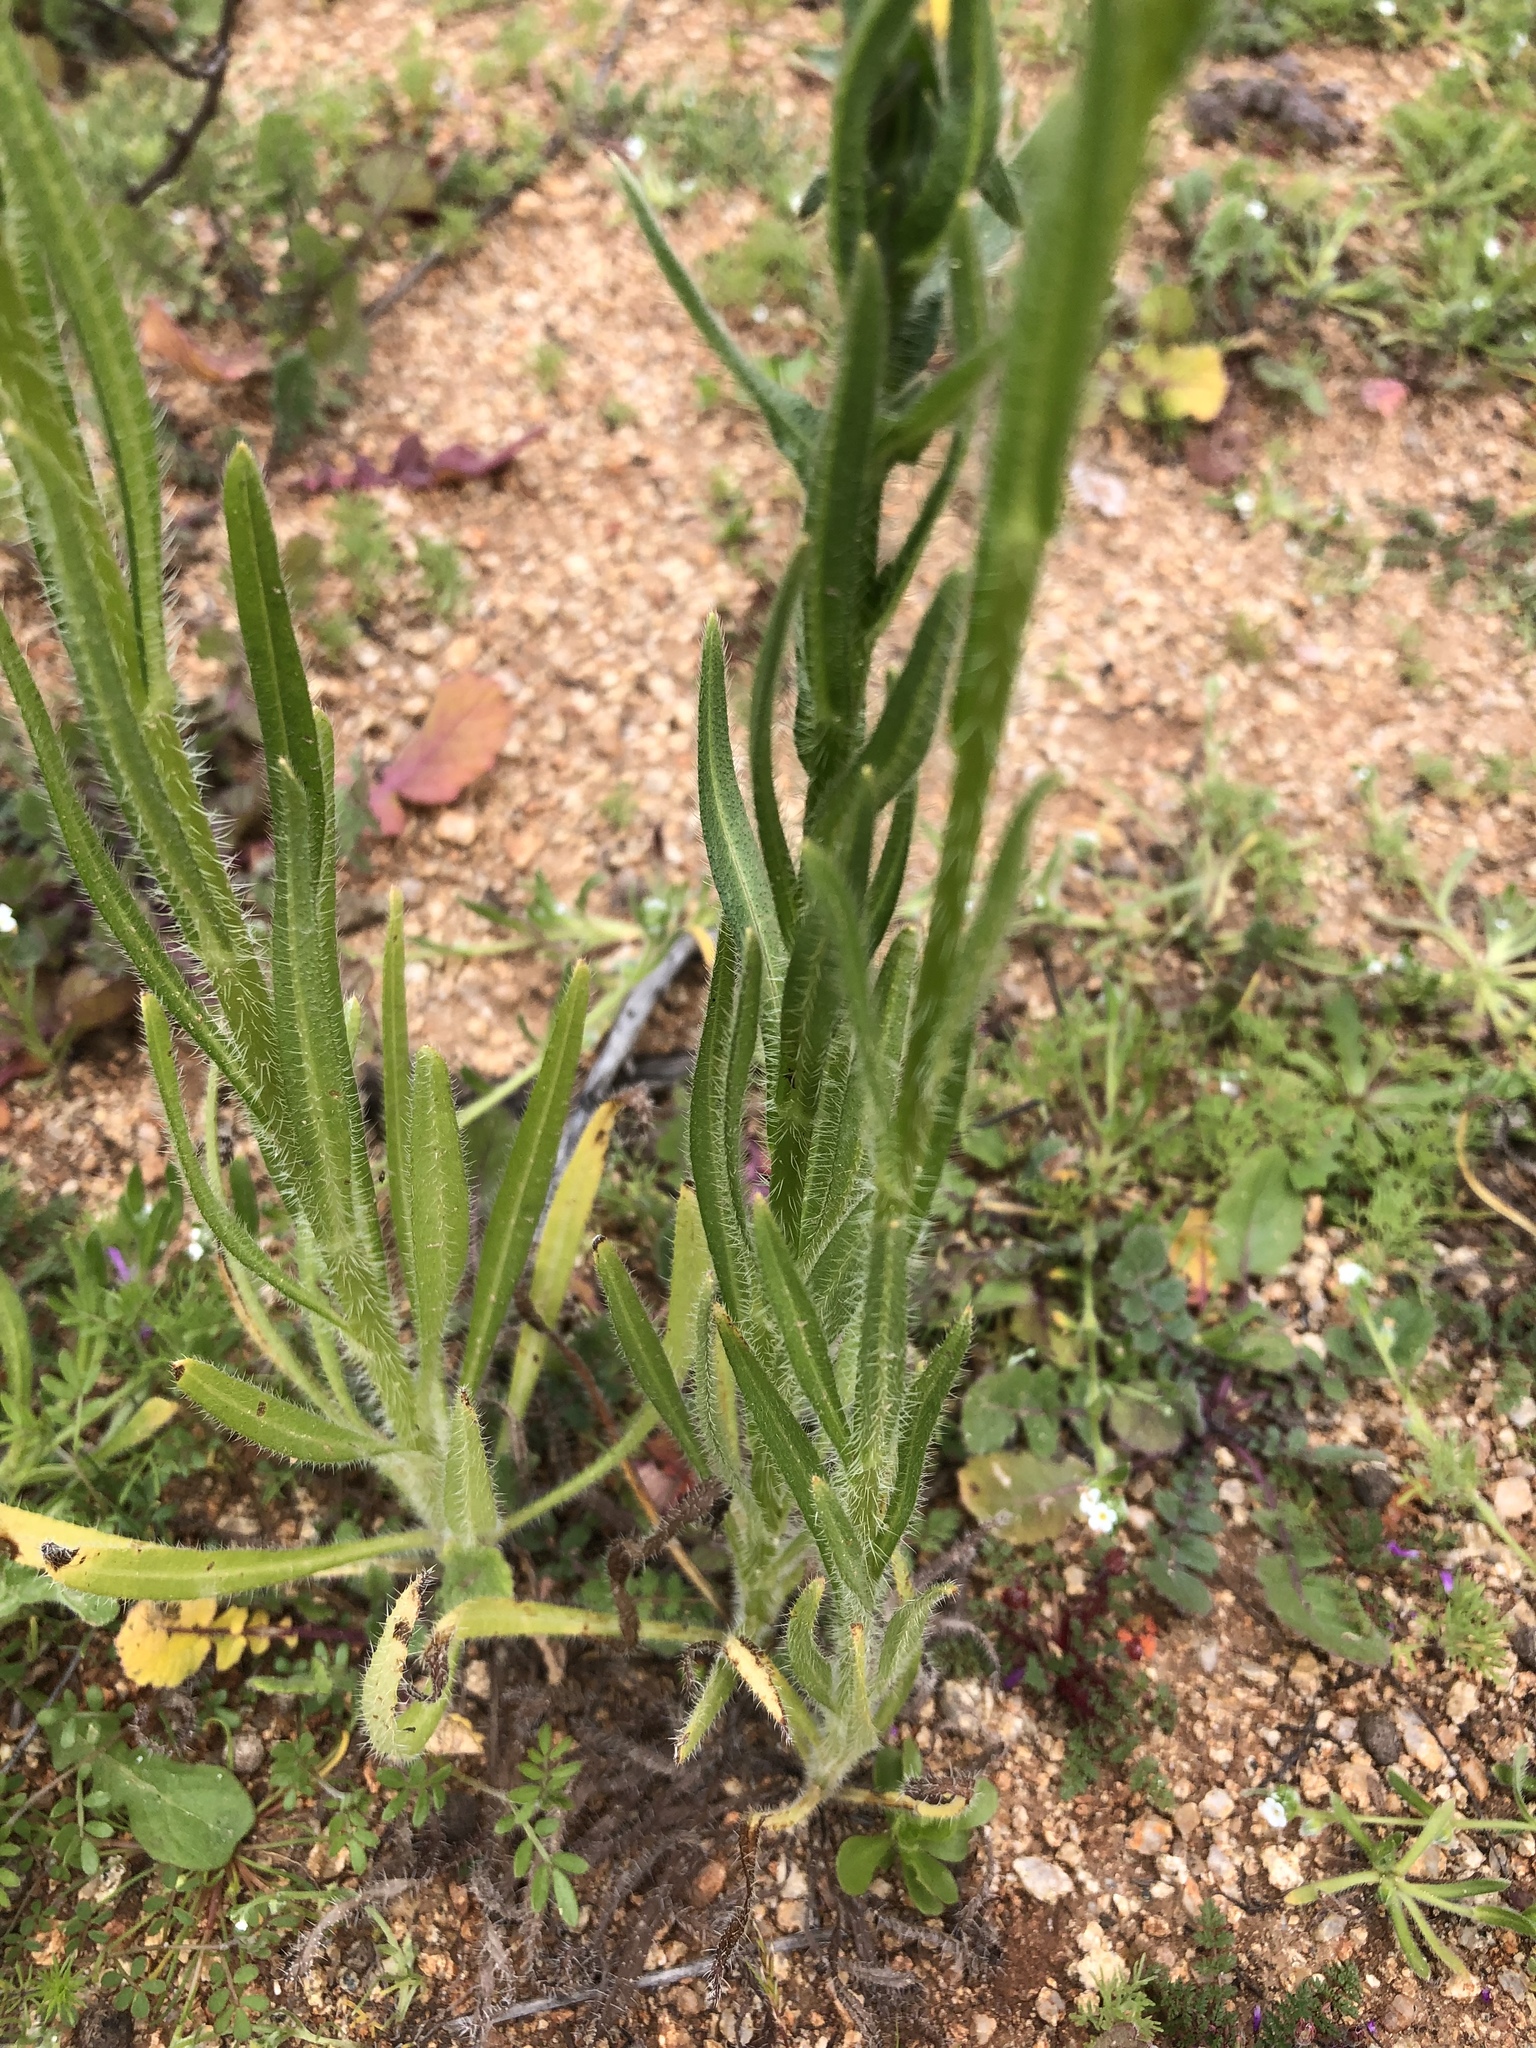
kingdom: Plantae
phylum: Tracheophyta
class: Magnoliopsida
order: Boraginales
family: Boraginaceae
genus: Amsinckia
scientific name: Amsinckia menziesii
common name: Menzies' fiddleneck
